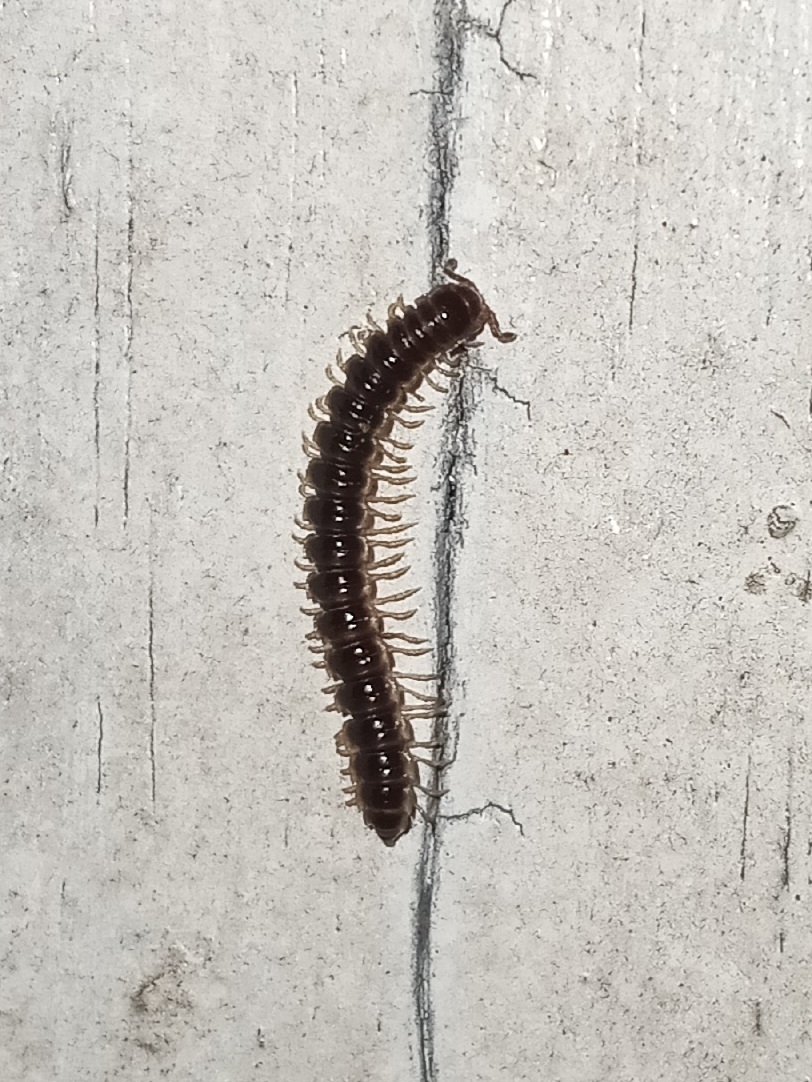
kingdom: Animalia
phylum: Arthropoda
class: Diplopoda
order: Polydesmida
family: Paradoxosomatidae
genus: Oxidus
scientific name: Oxidus gracilis
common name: Greenhouse millipede
